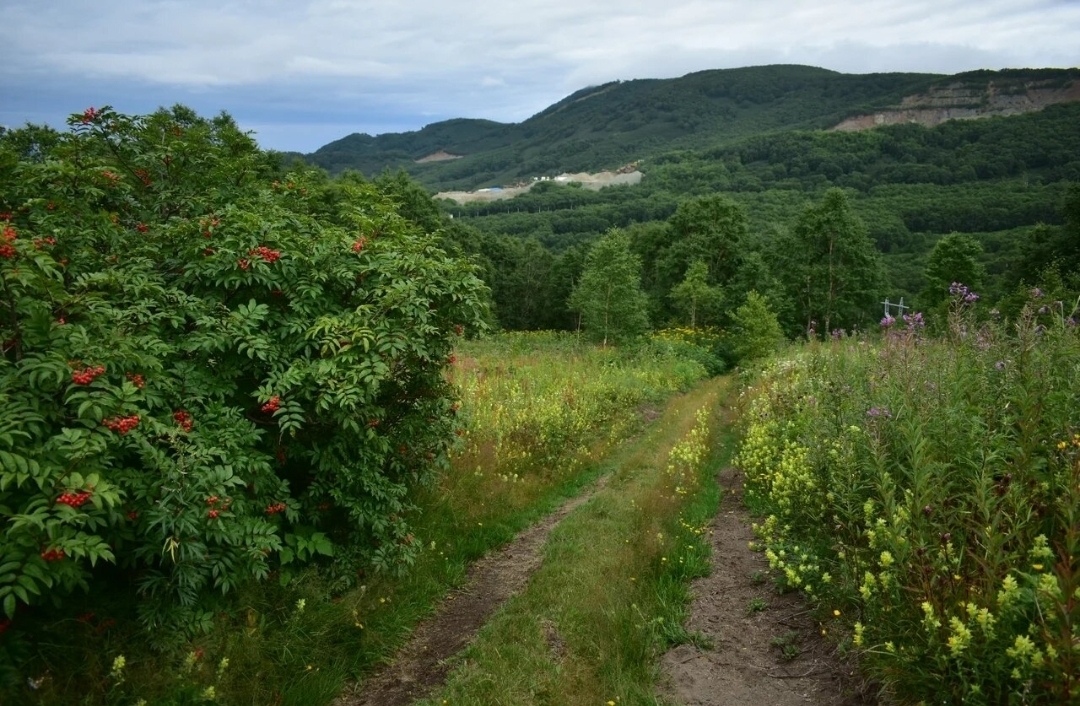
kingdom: Plantae
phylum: Tracheophyta
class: Magnoliopsida
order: Rosales
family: Rosaceae
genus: Sorbus
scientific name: Sorbus sambucifolia
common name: Siberian mountain-ash
